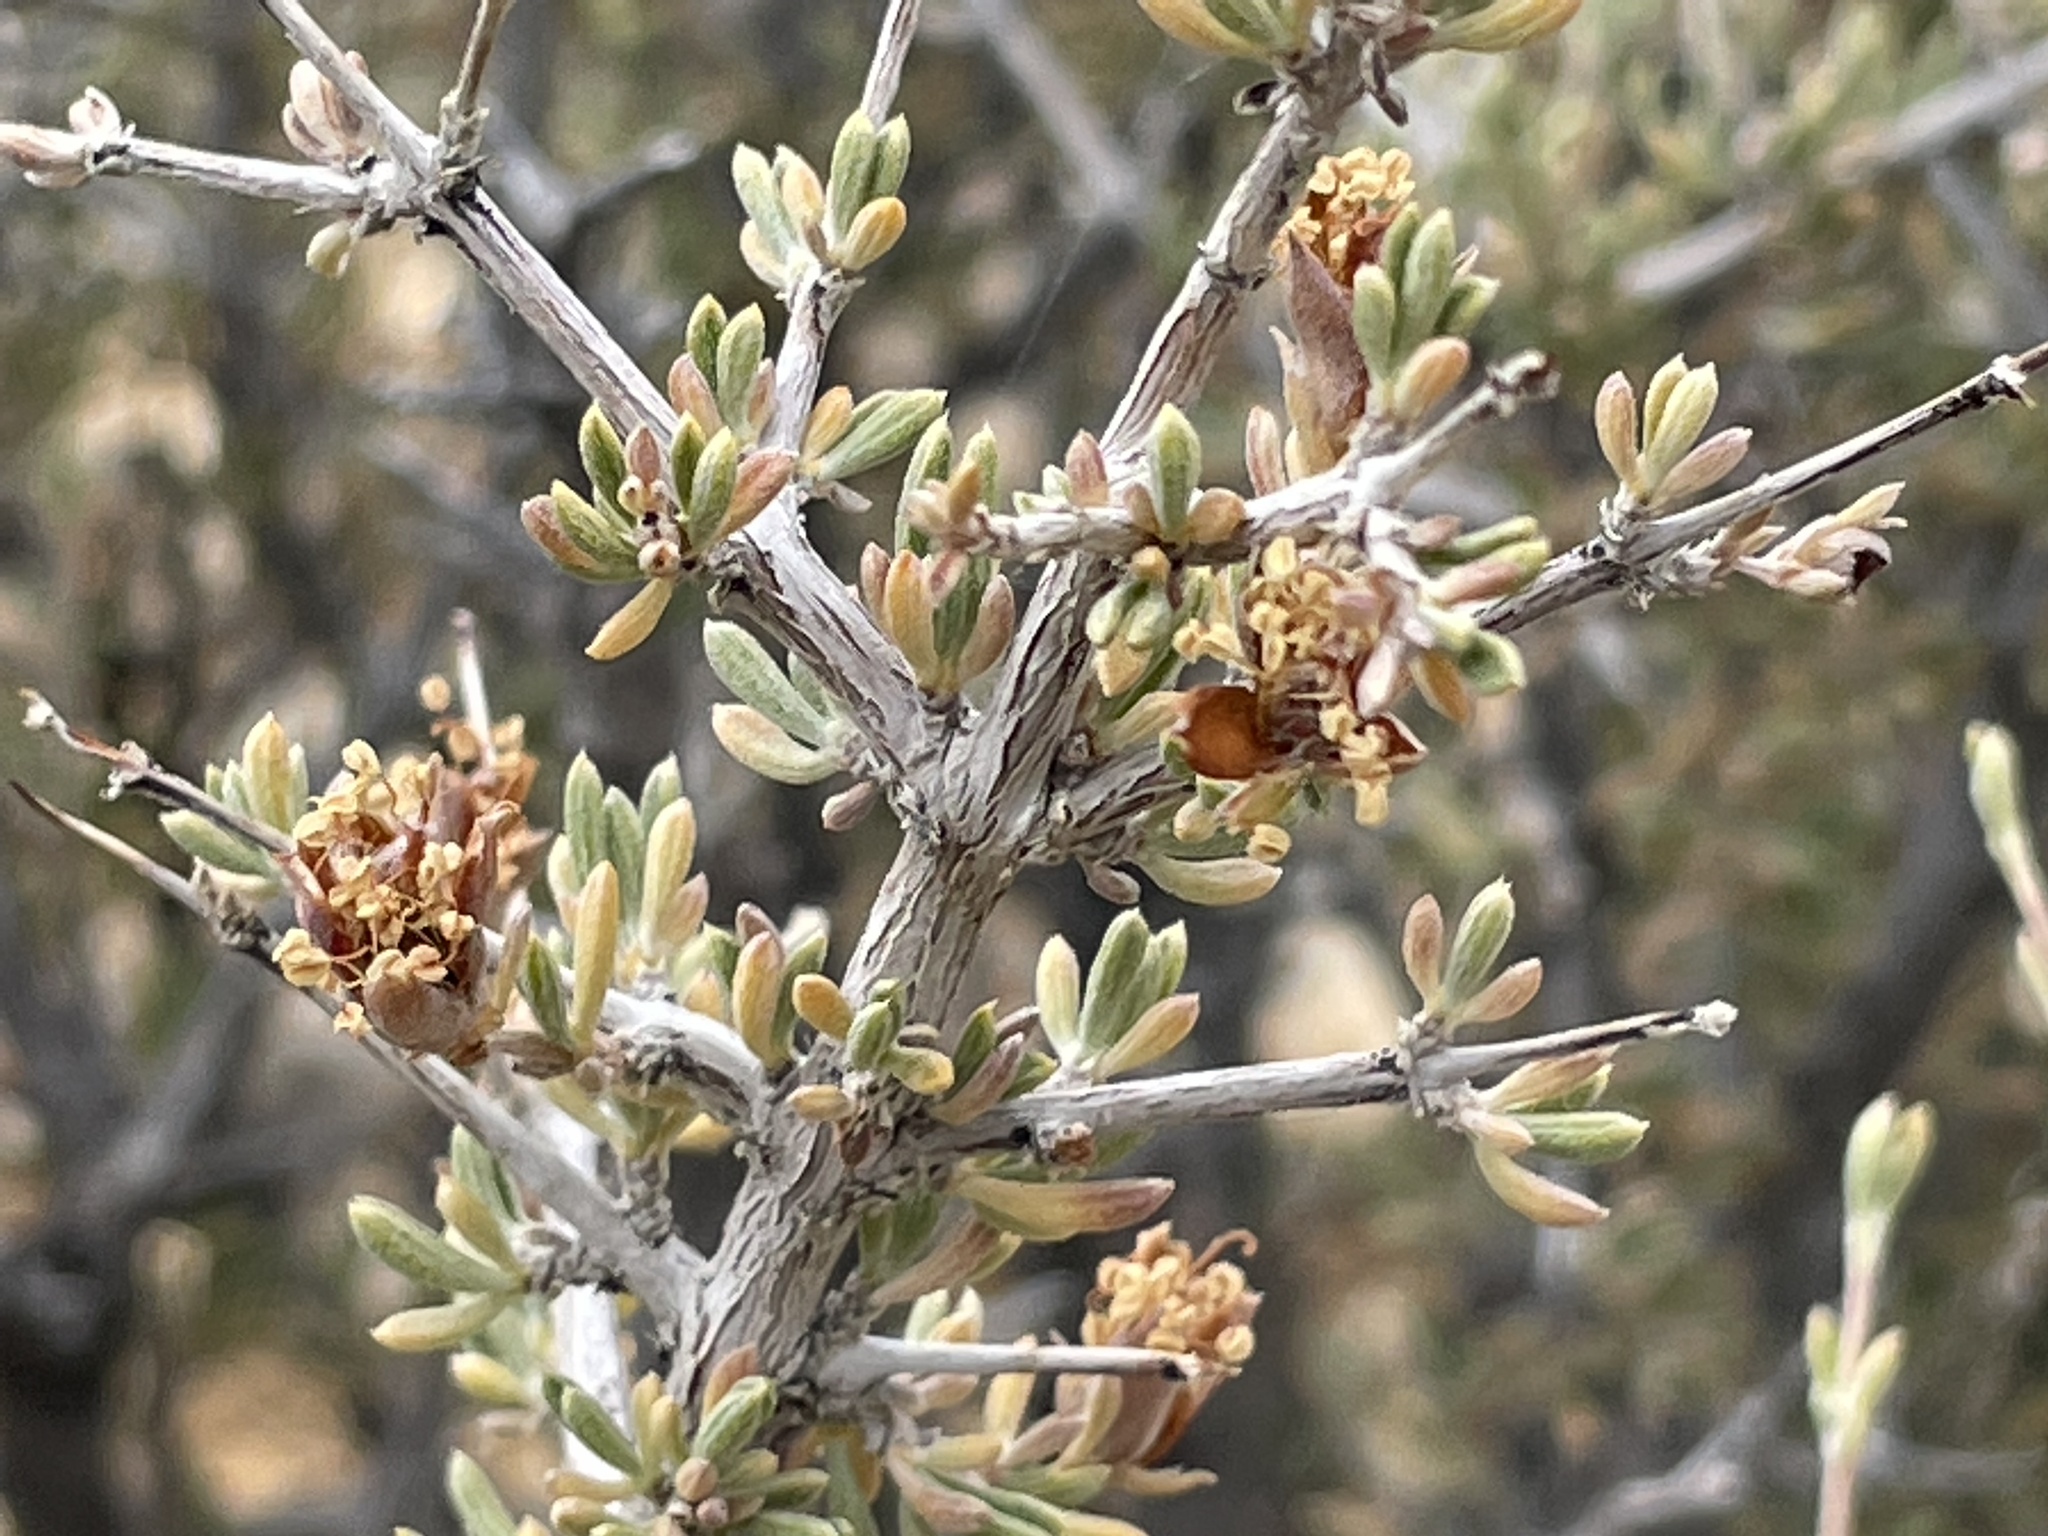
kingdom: Plantae
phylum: Tracheophyta
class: Magnoliopsida
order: Rosales
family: Rosaceae
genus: Coleogyne
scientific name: Coleogyne ramosissima
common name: Blackbrush
